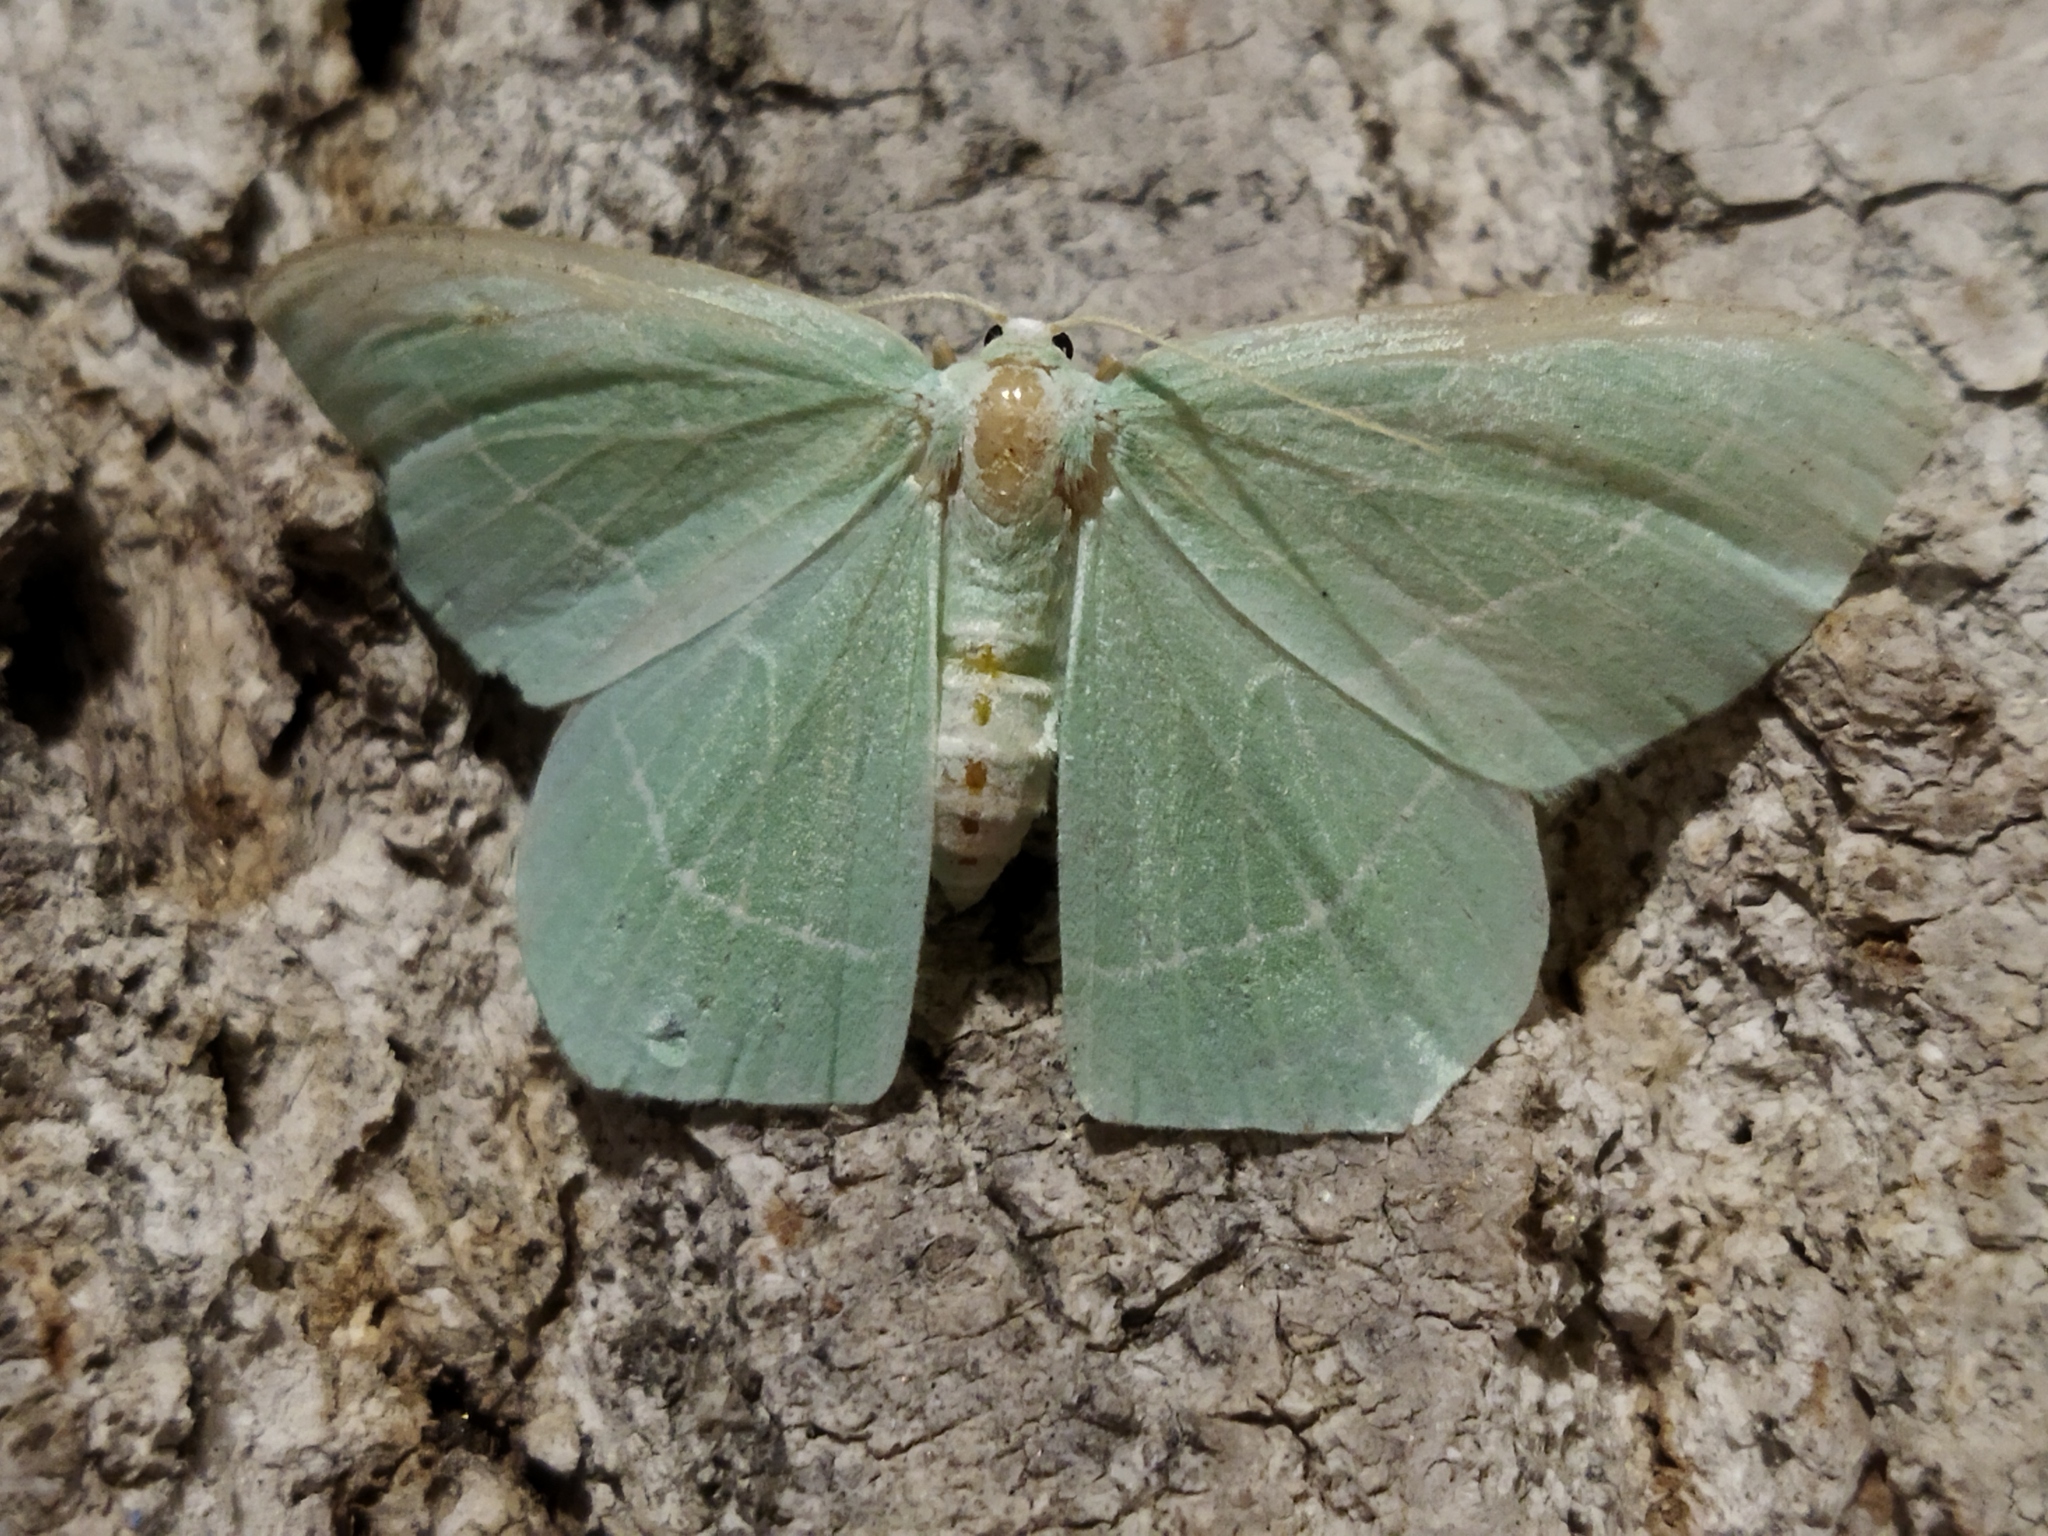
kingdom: Animalia
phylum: Arthropoda
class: Insecta
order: Lepidoptera
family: Geometridae
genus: Hemistola
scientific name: Hemistola chrysoprasaria
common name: Small emerald
